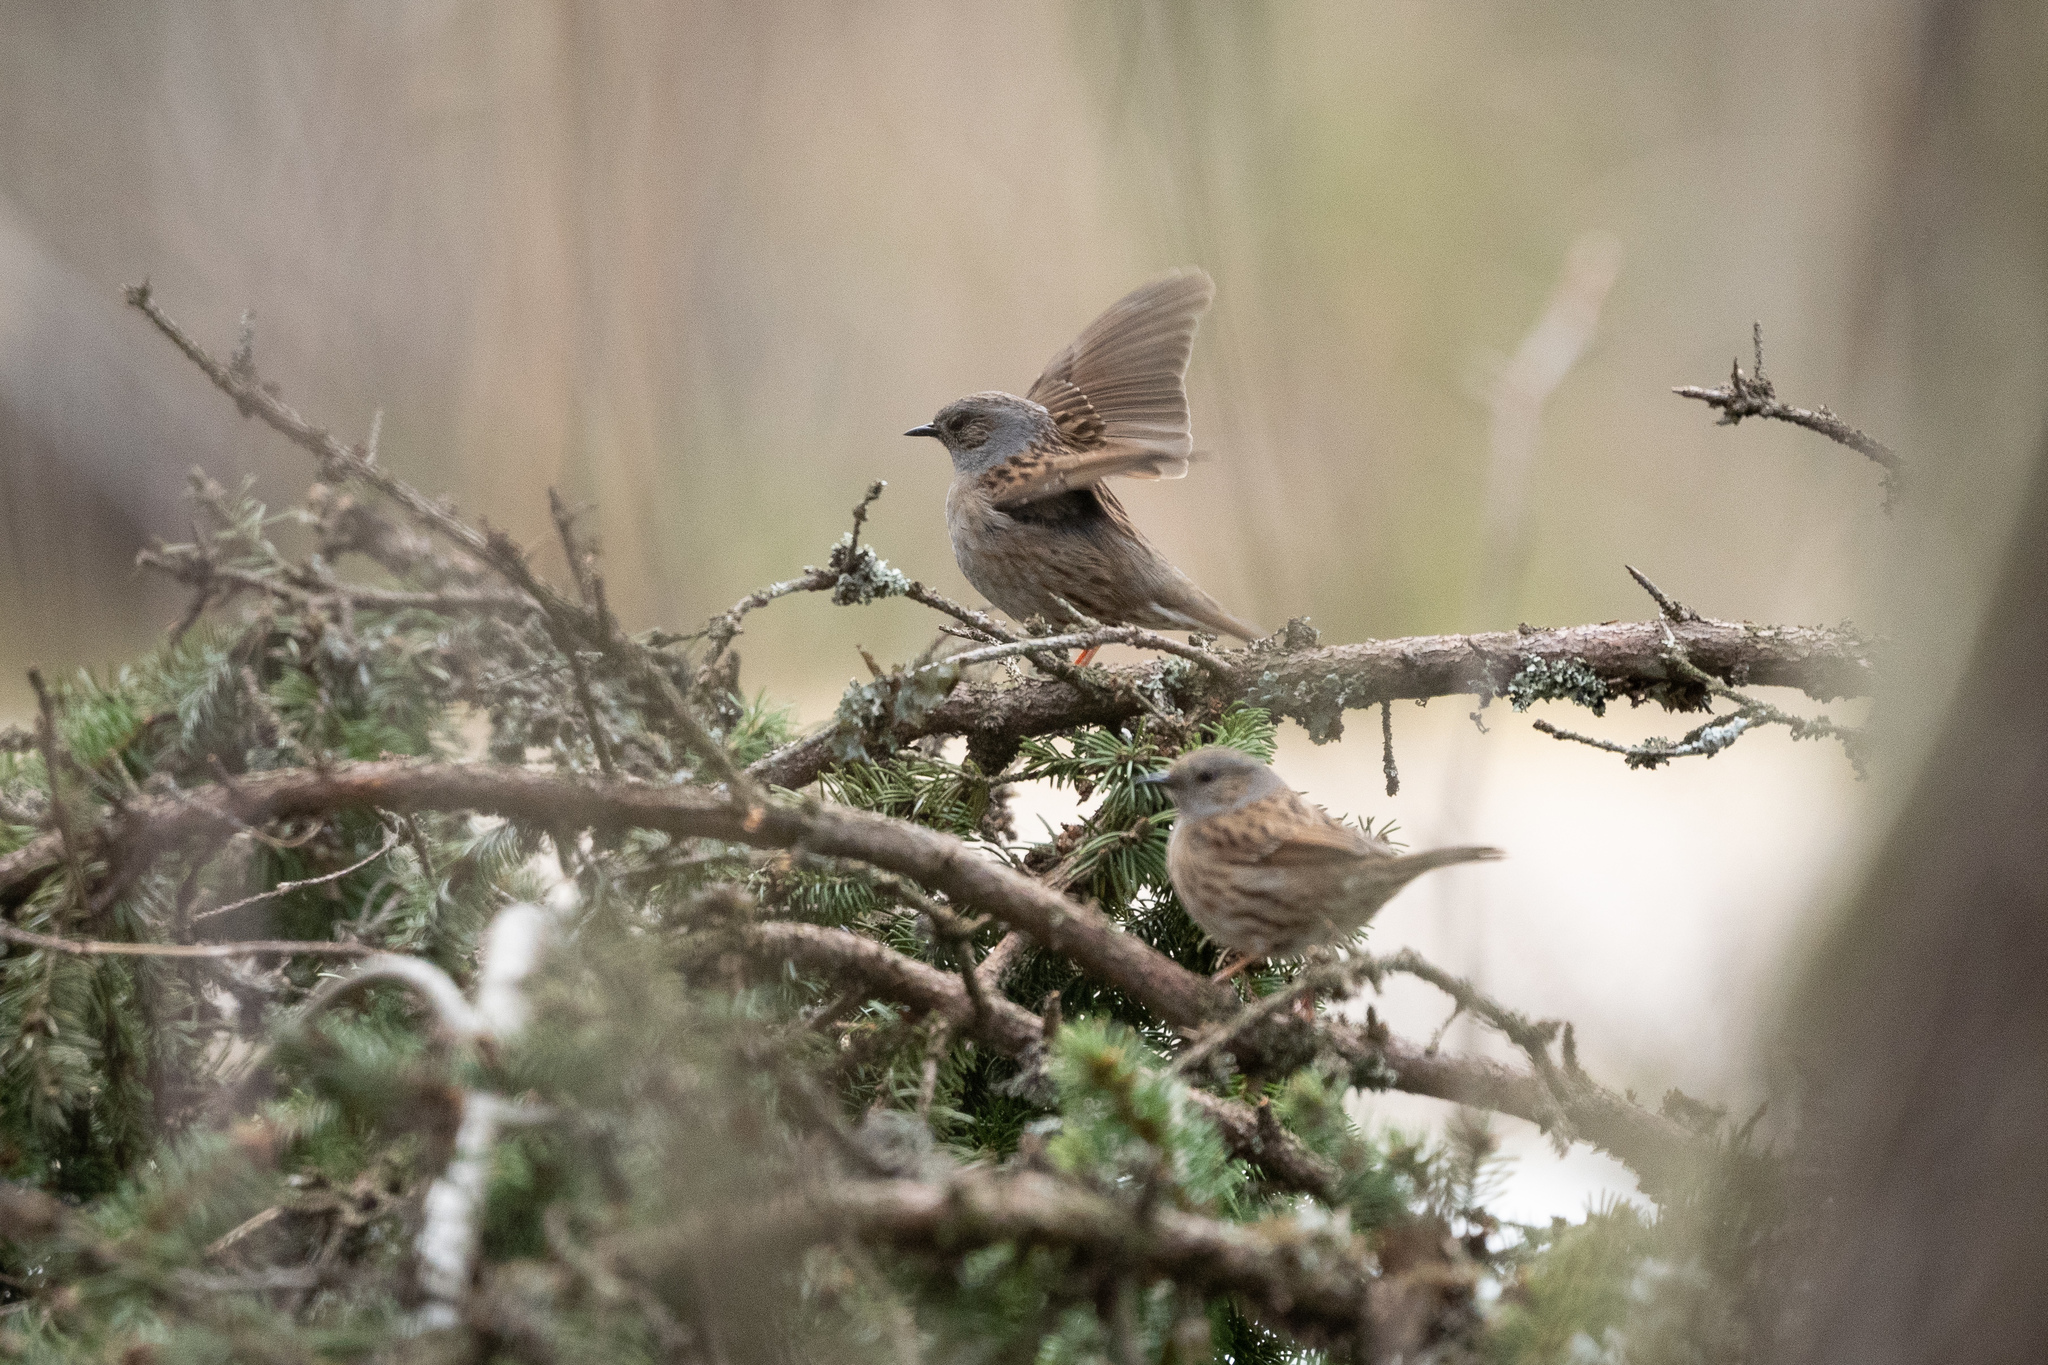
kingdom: Animalia
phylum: Chordata
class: Aves
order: Passeriformes
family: Prunellidae
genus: Prunella
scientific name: Prunella modularis
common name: Dunnock
